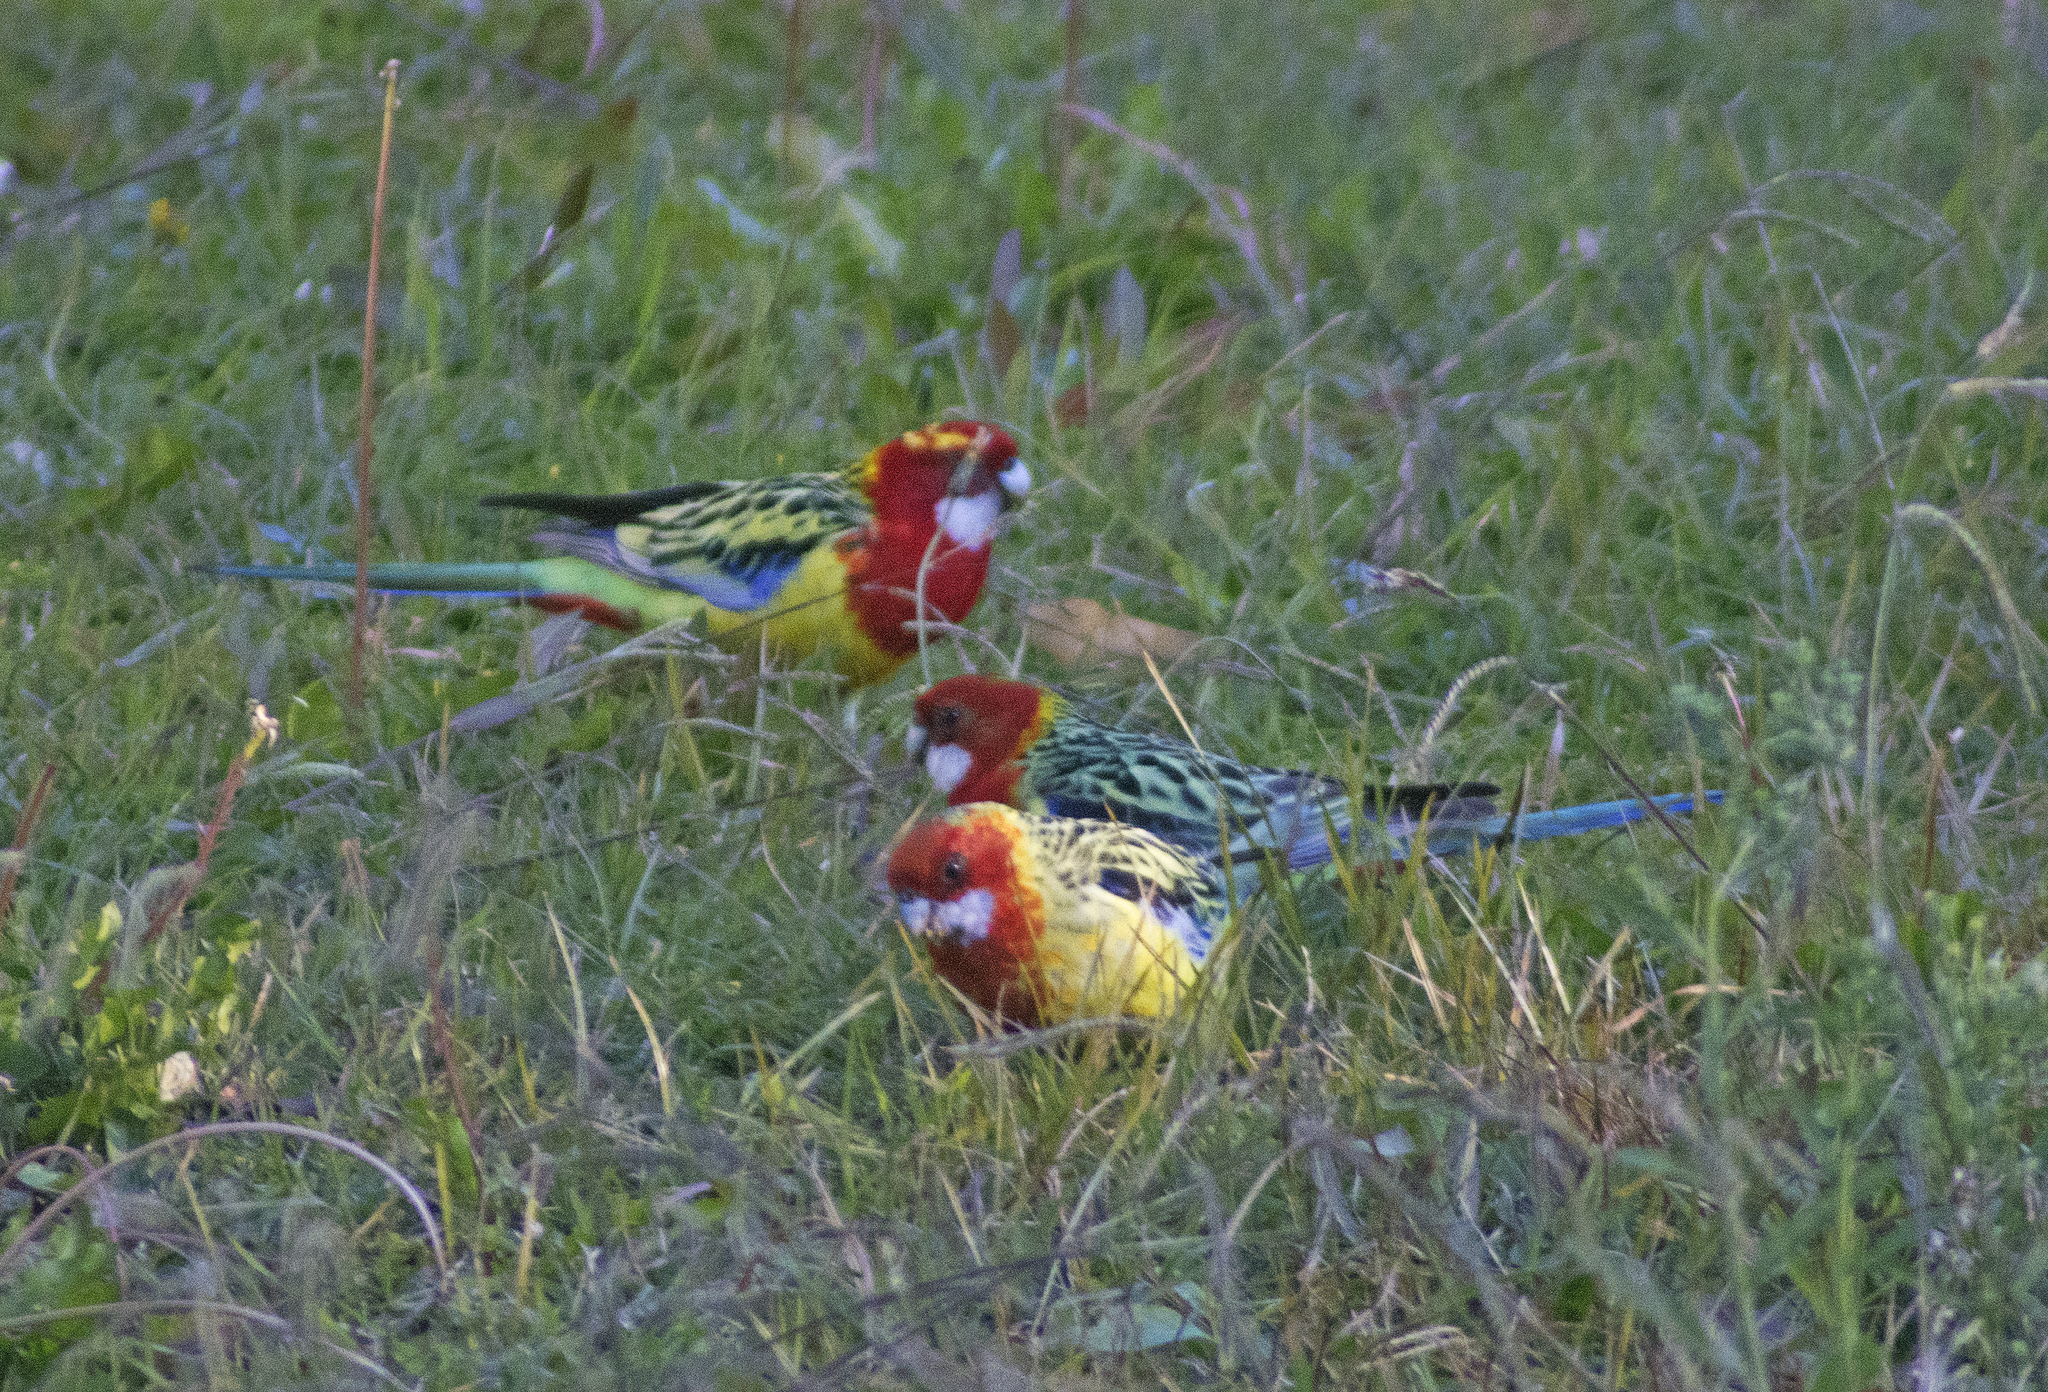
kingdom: Animalia
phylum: Chordata
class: Aves
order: Psittaciformes
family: Psittacidae
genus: Platycercus
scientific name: Platycercus eximius
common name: Eastern rosella
